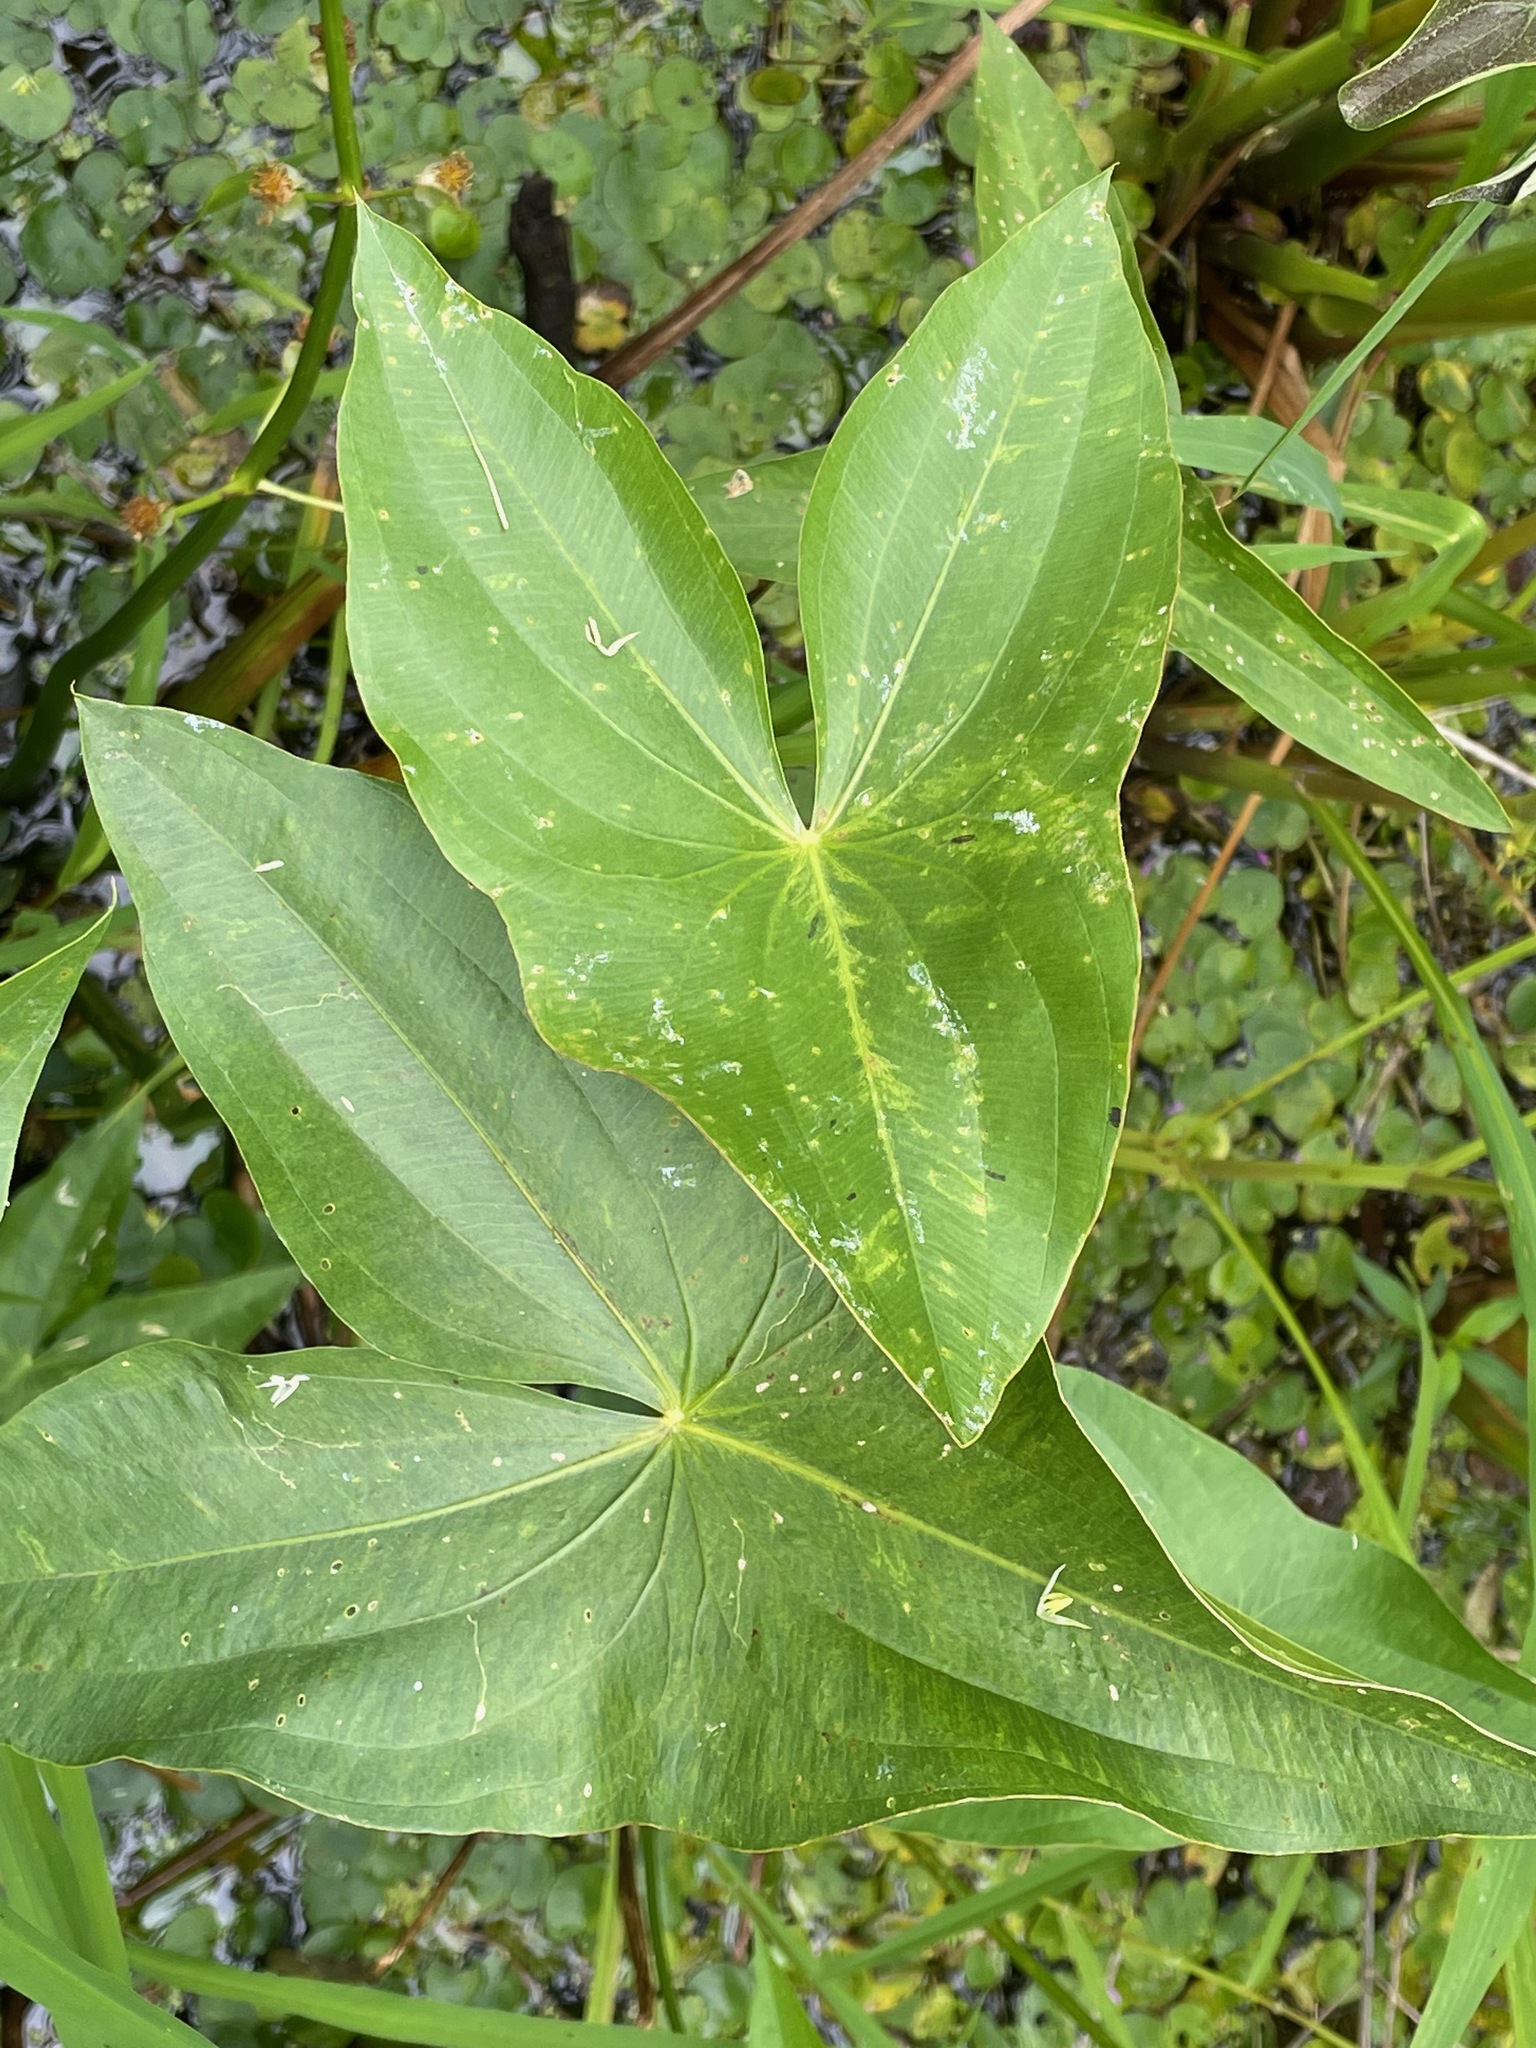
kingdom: Plantae
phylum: Tracheophyta
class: Liliopsida
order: Alismatales
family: Alismataceae
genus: Sagittaria
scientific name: Sagittaria latifolia
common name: Duck-potato
